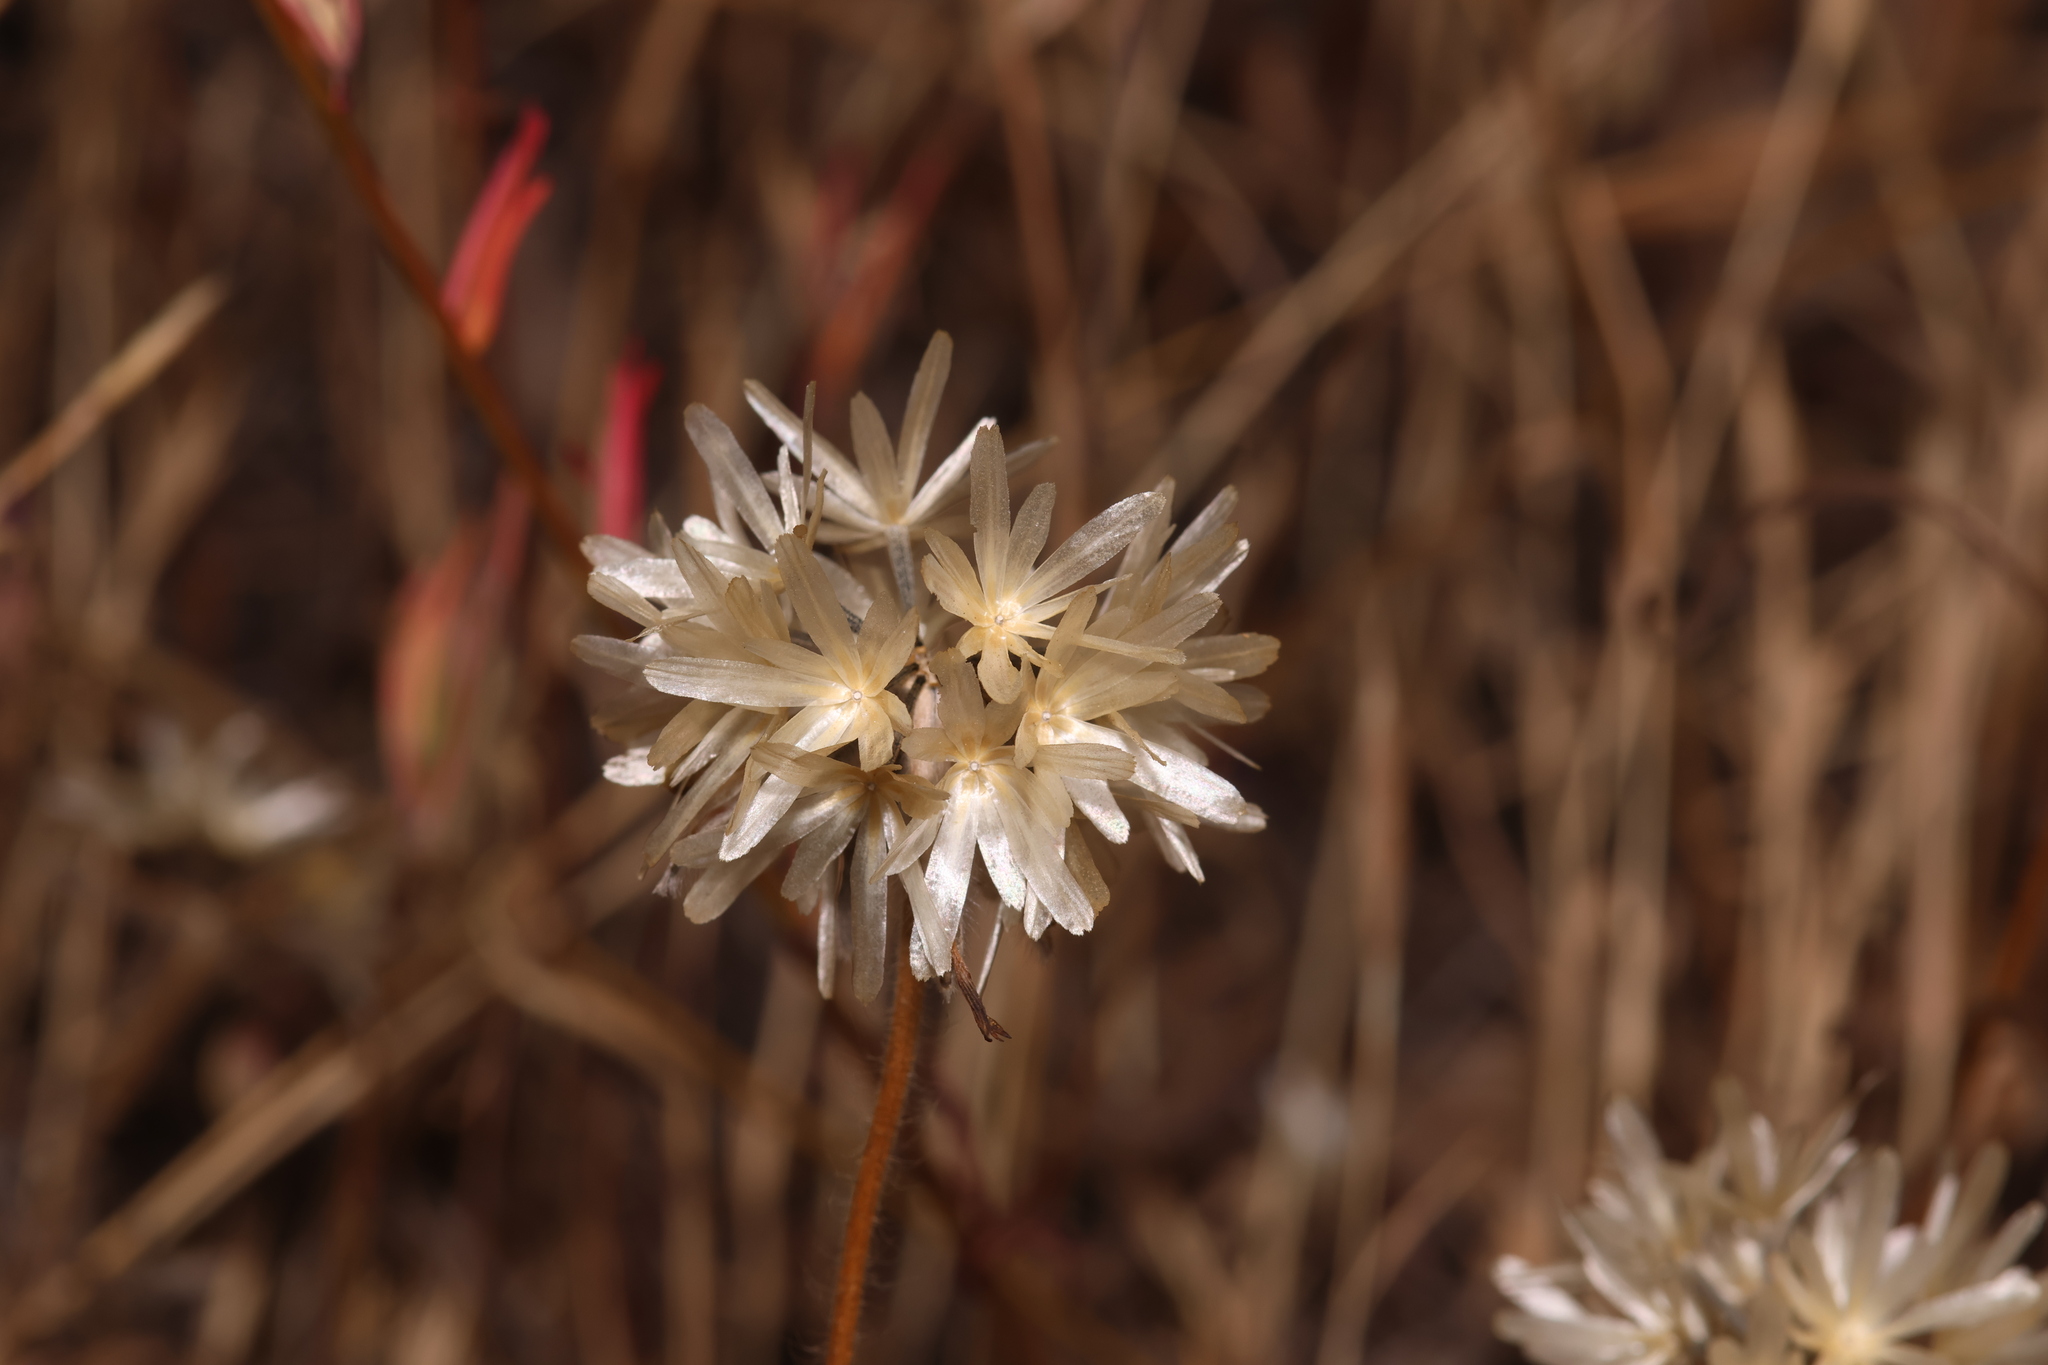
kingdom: Plantae
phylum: Tracheophyta
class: Magnoliopsida
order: Asterales
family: Asteraceae
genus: Achyrachaena
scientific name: Achyrachaena mollis
